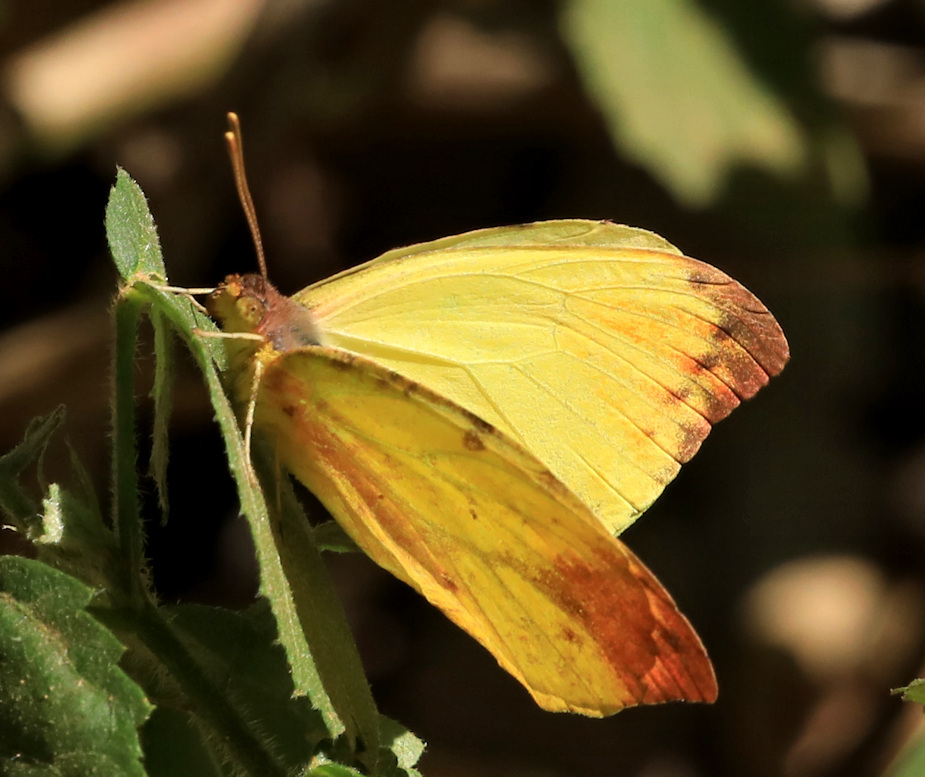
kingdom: Animalia
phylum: Arthropoda
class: Insecta
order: Lepidoptera
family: Pieridae
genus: Eronia
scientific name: Eronia leda
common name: Autumn leaf vagrant
